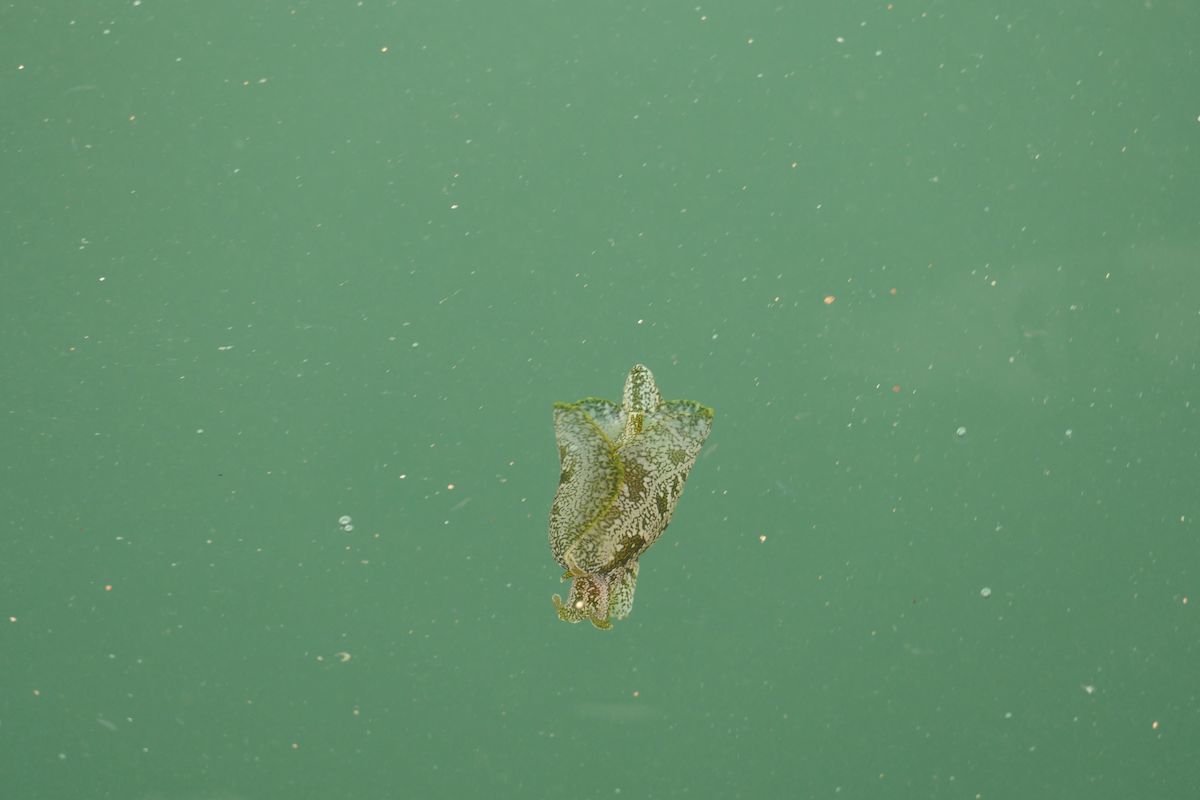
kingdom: Animalia
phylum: Mollusca
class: Gastropoda
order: Aplysiida
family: Aplysiidae
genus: Syphonota
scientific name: Syphonota geographica
